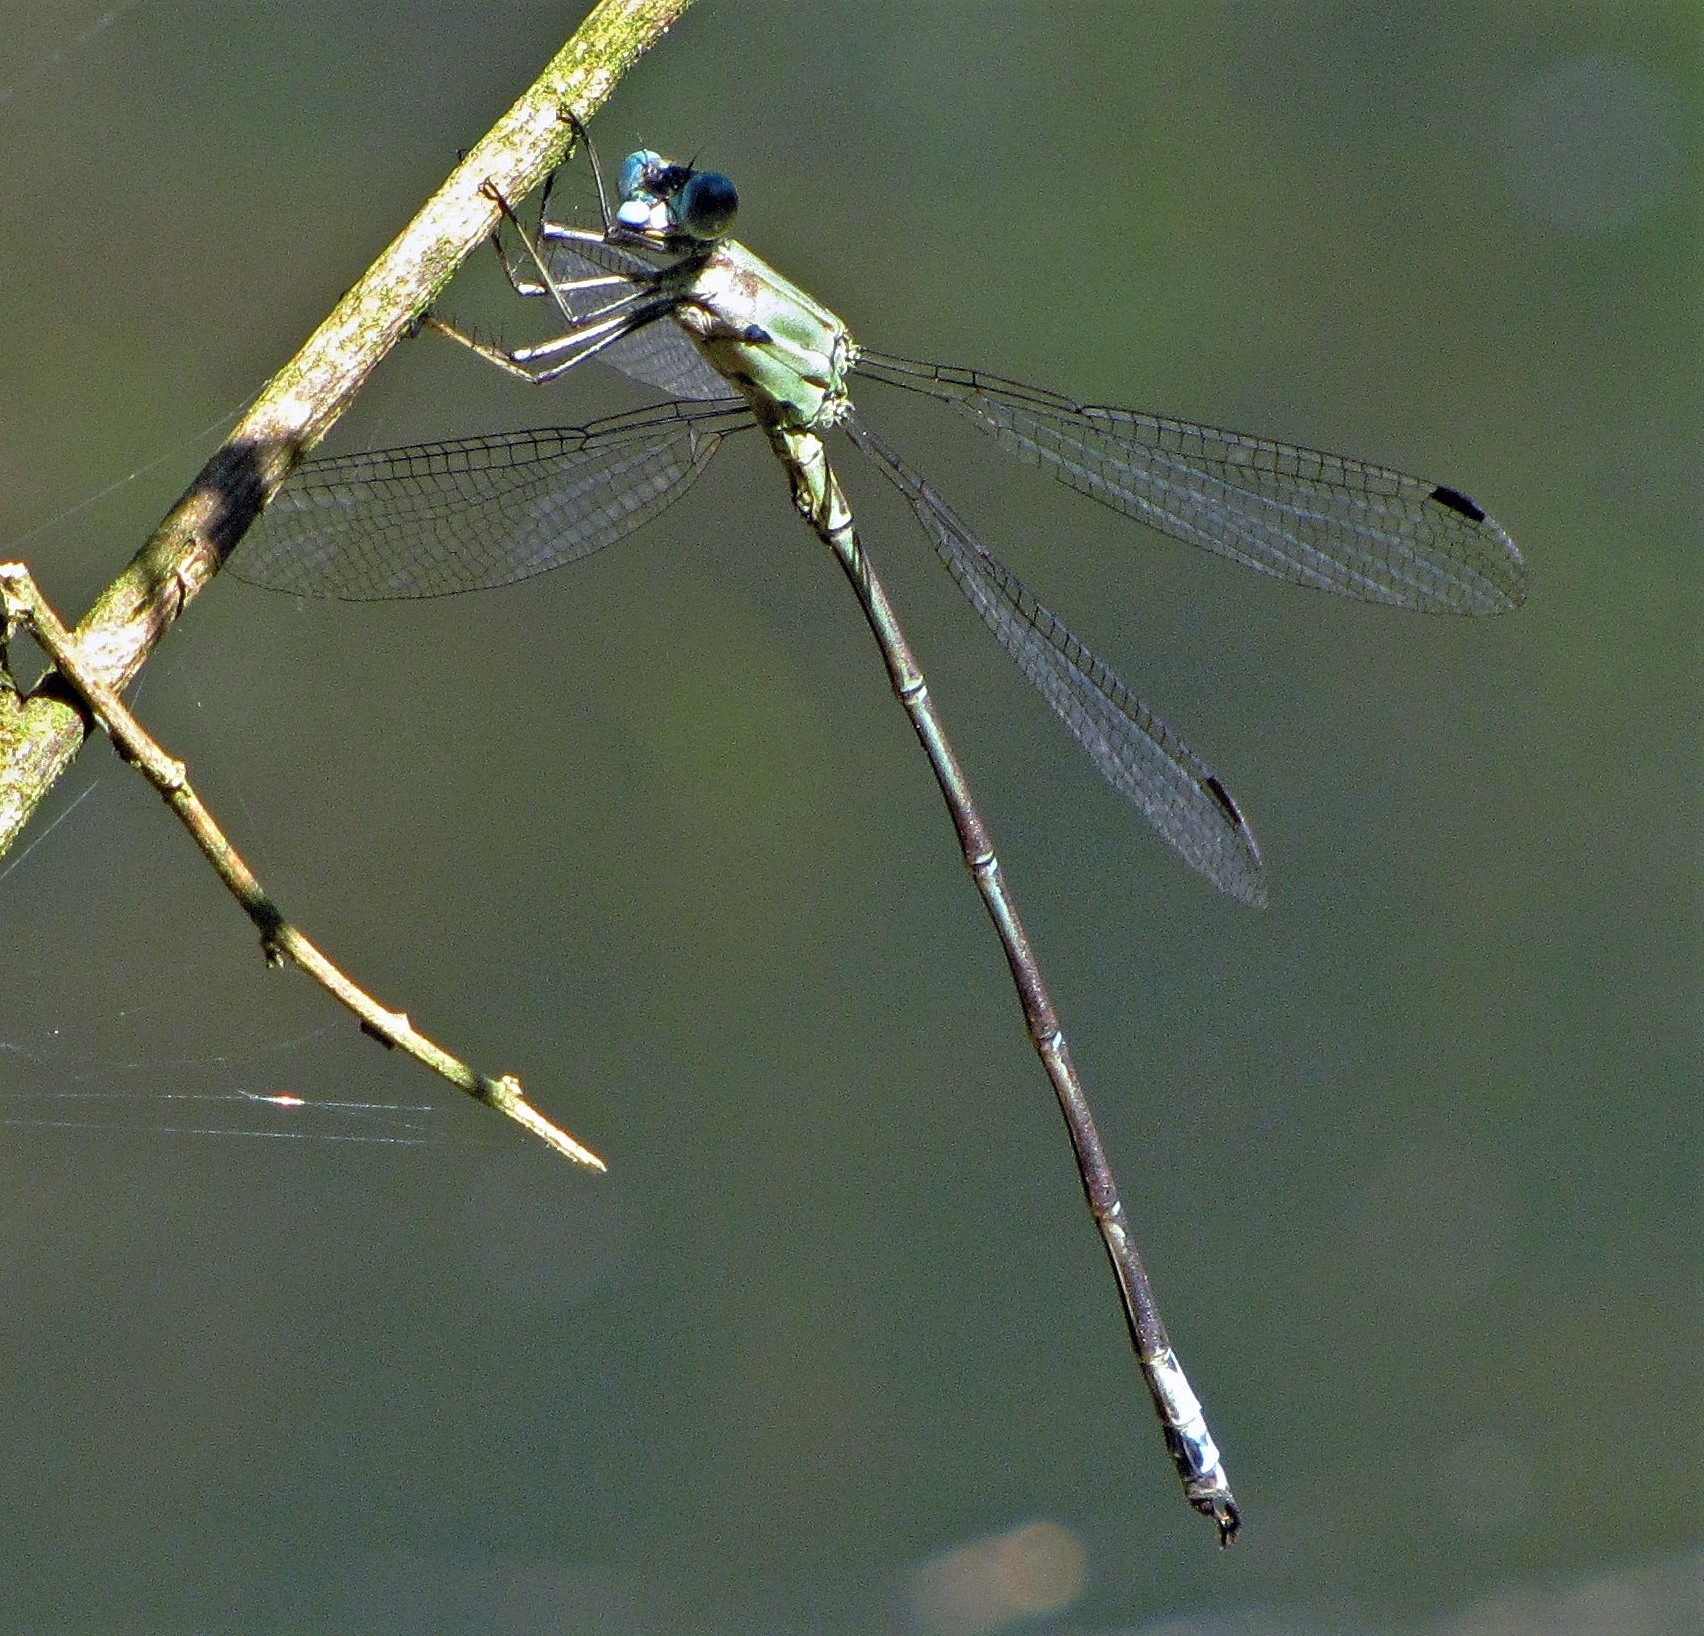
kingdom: Animalia
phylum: Arthropoda
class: Insecta
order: Odonata
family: Lestidae
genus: Archilestes
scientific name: Archilestes exoletus
